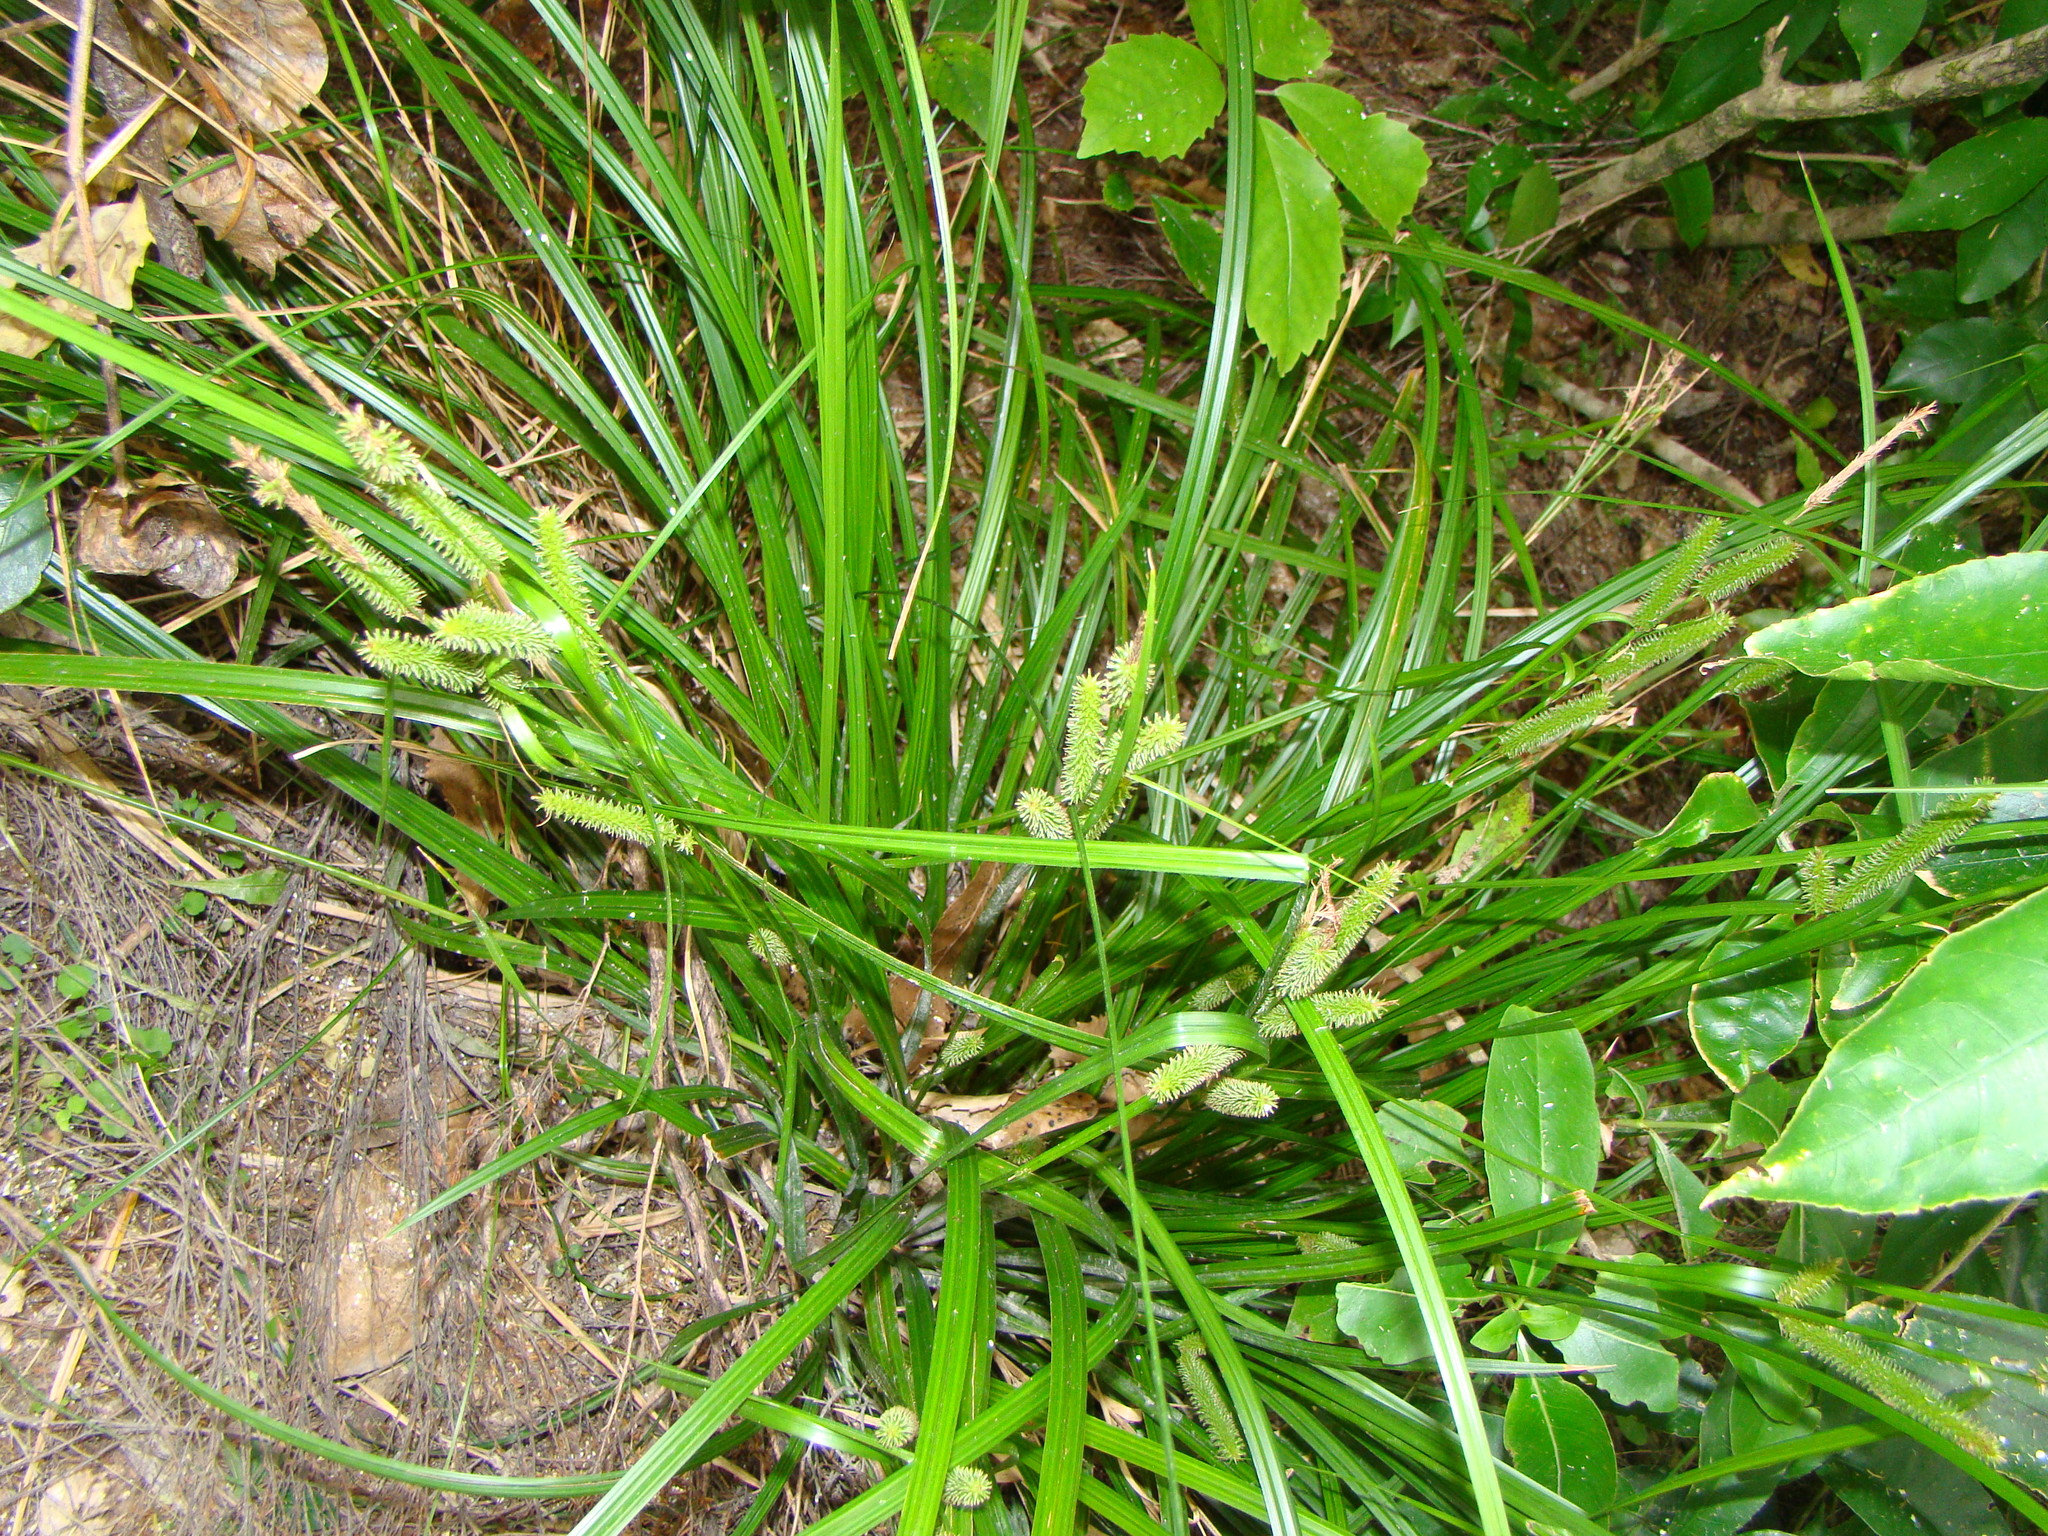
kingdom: Plantae
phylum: Tracheophyta
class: Liliopsida
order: Poales
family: Cyperaceae
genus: Carex
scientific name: Carex forsteri
